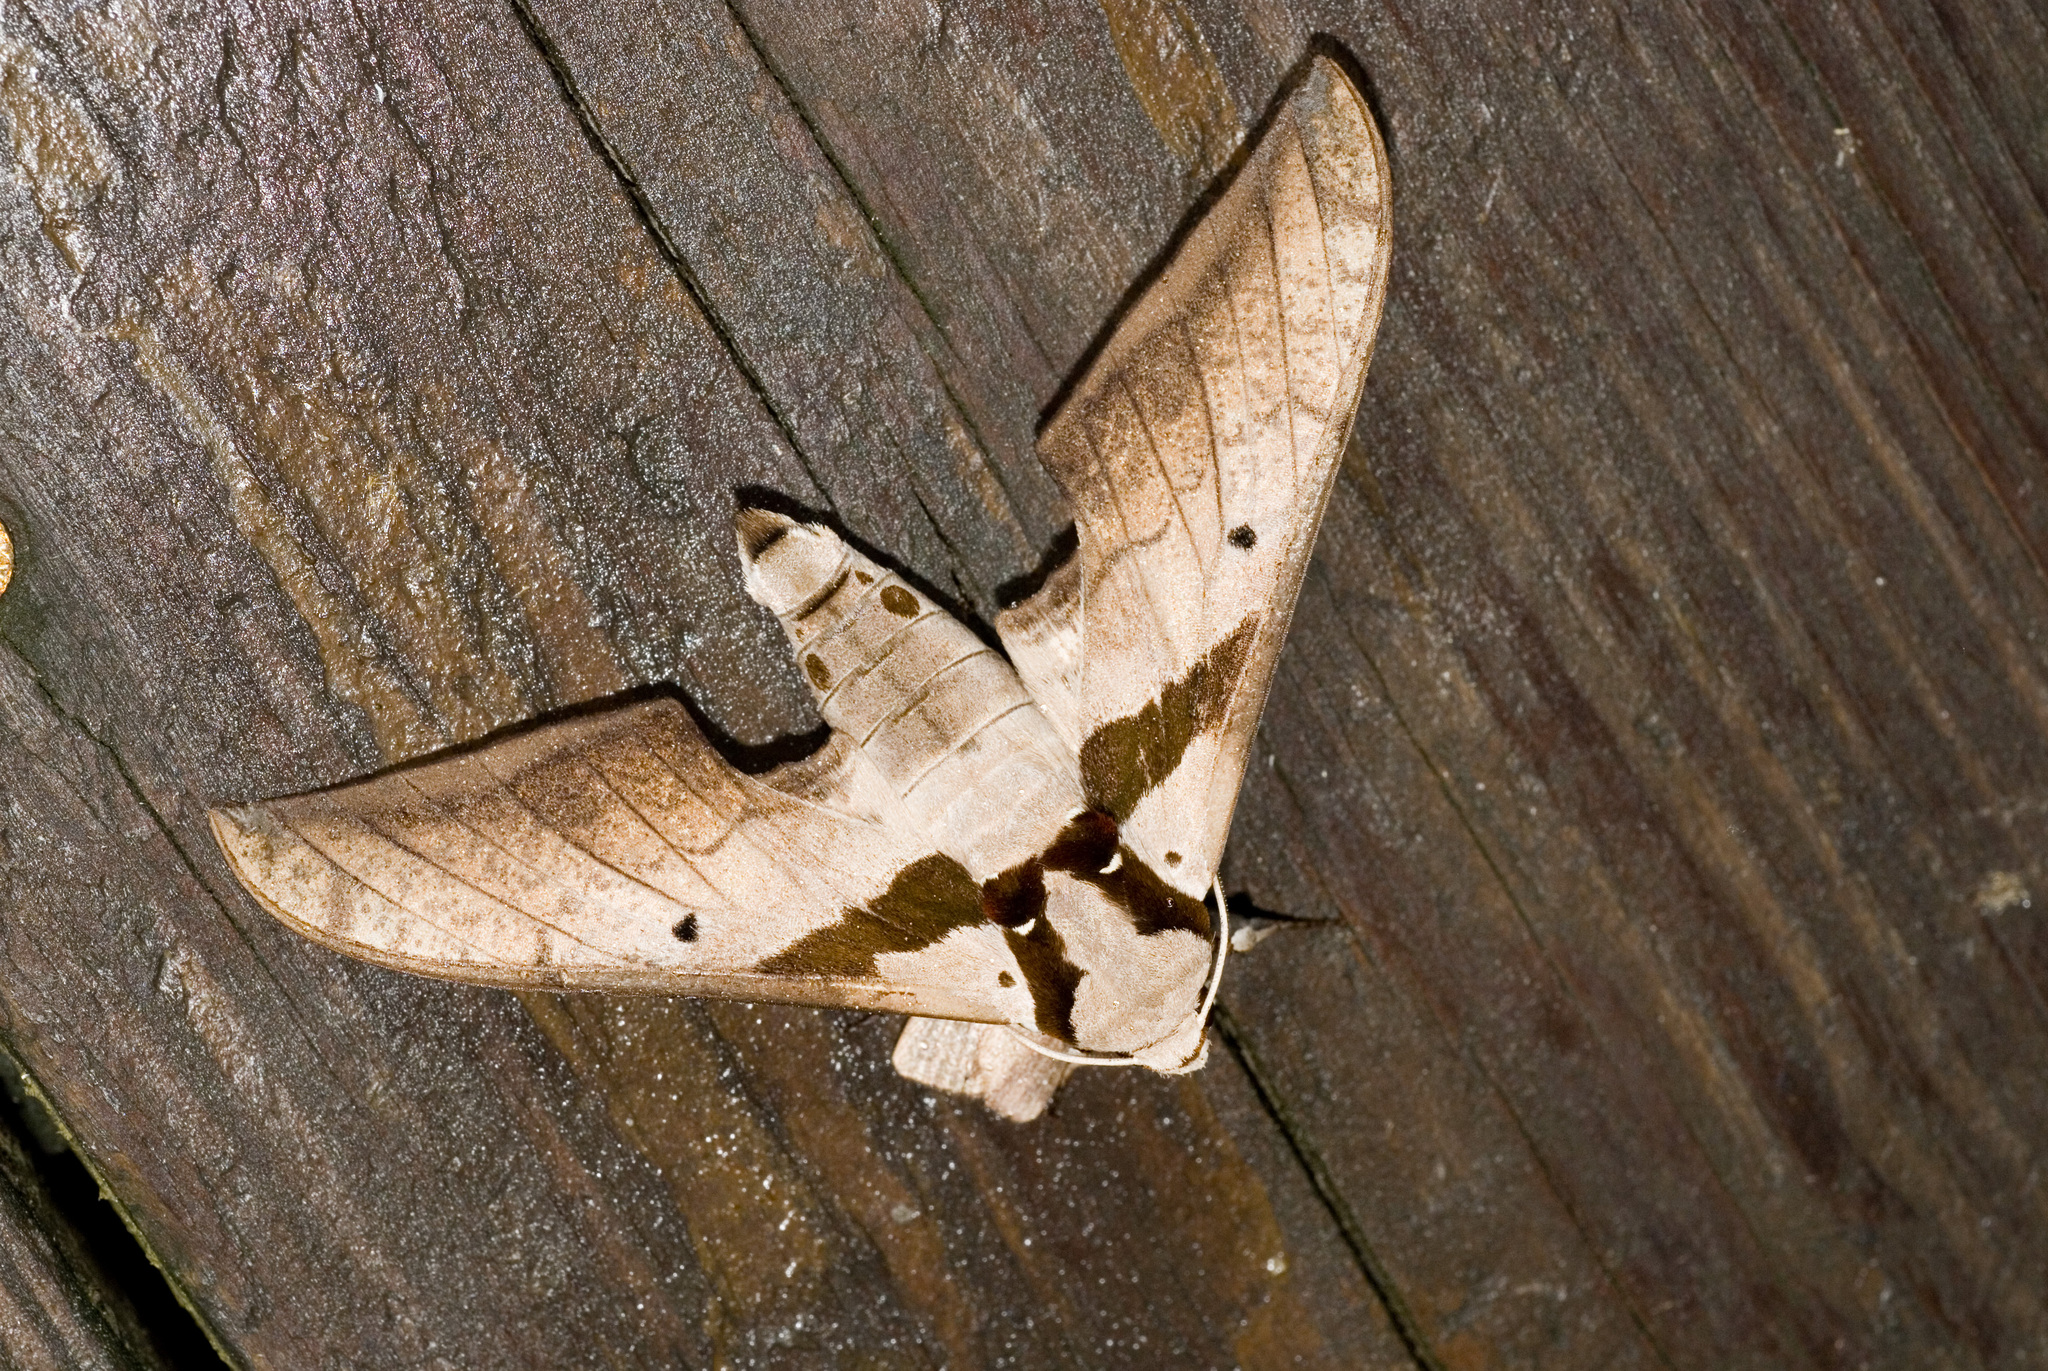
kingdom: Animalia
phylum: Arthropoda
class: Insecta
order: Lepidoptera
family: Sphingidae
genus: Ambulyx
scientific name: Ambulyx japonica
